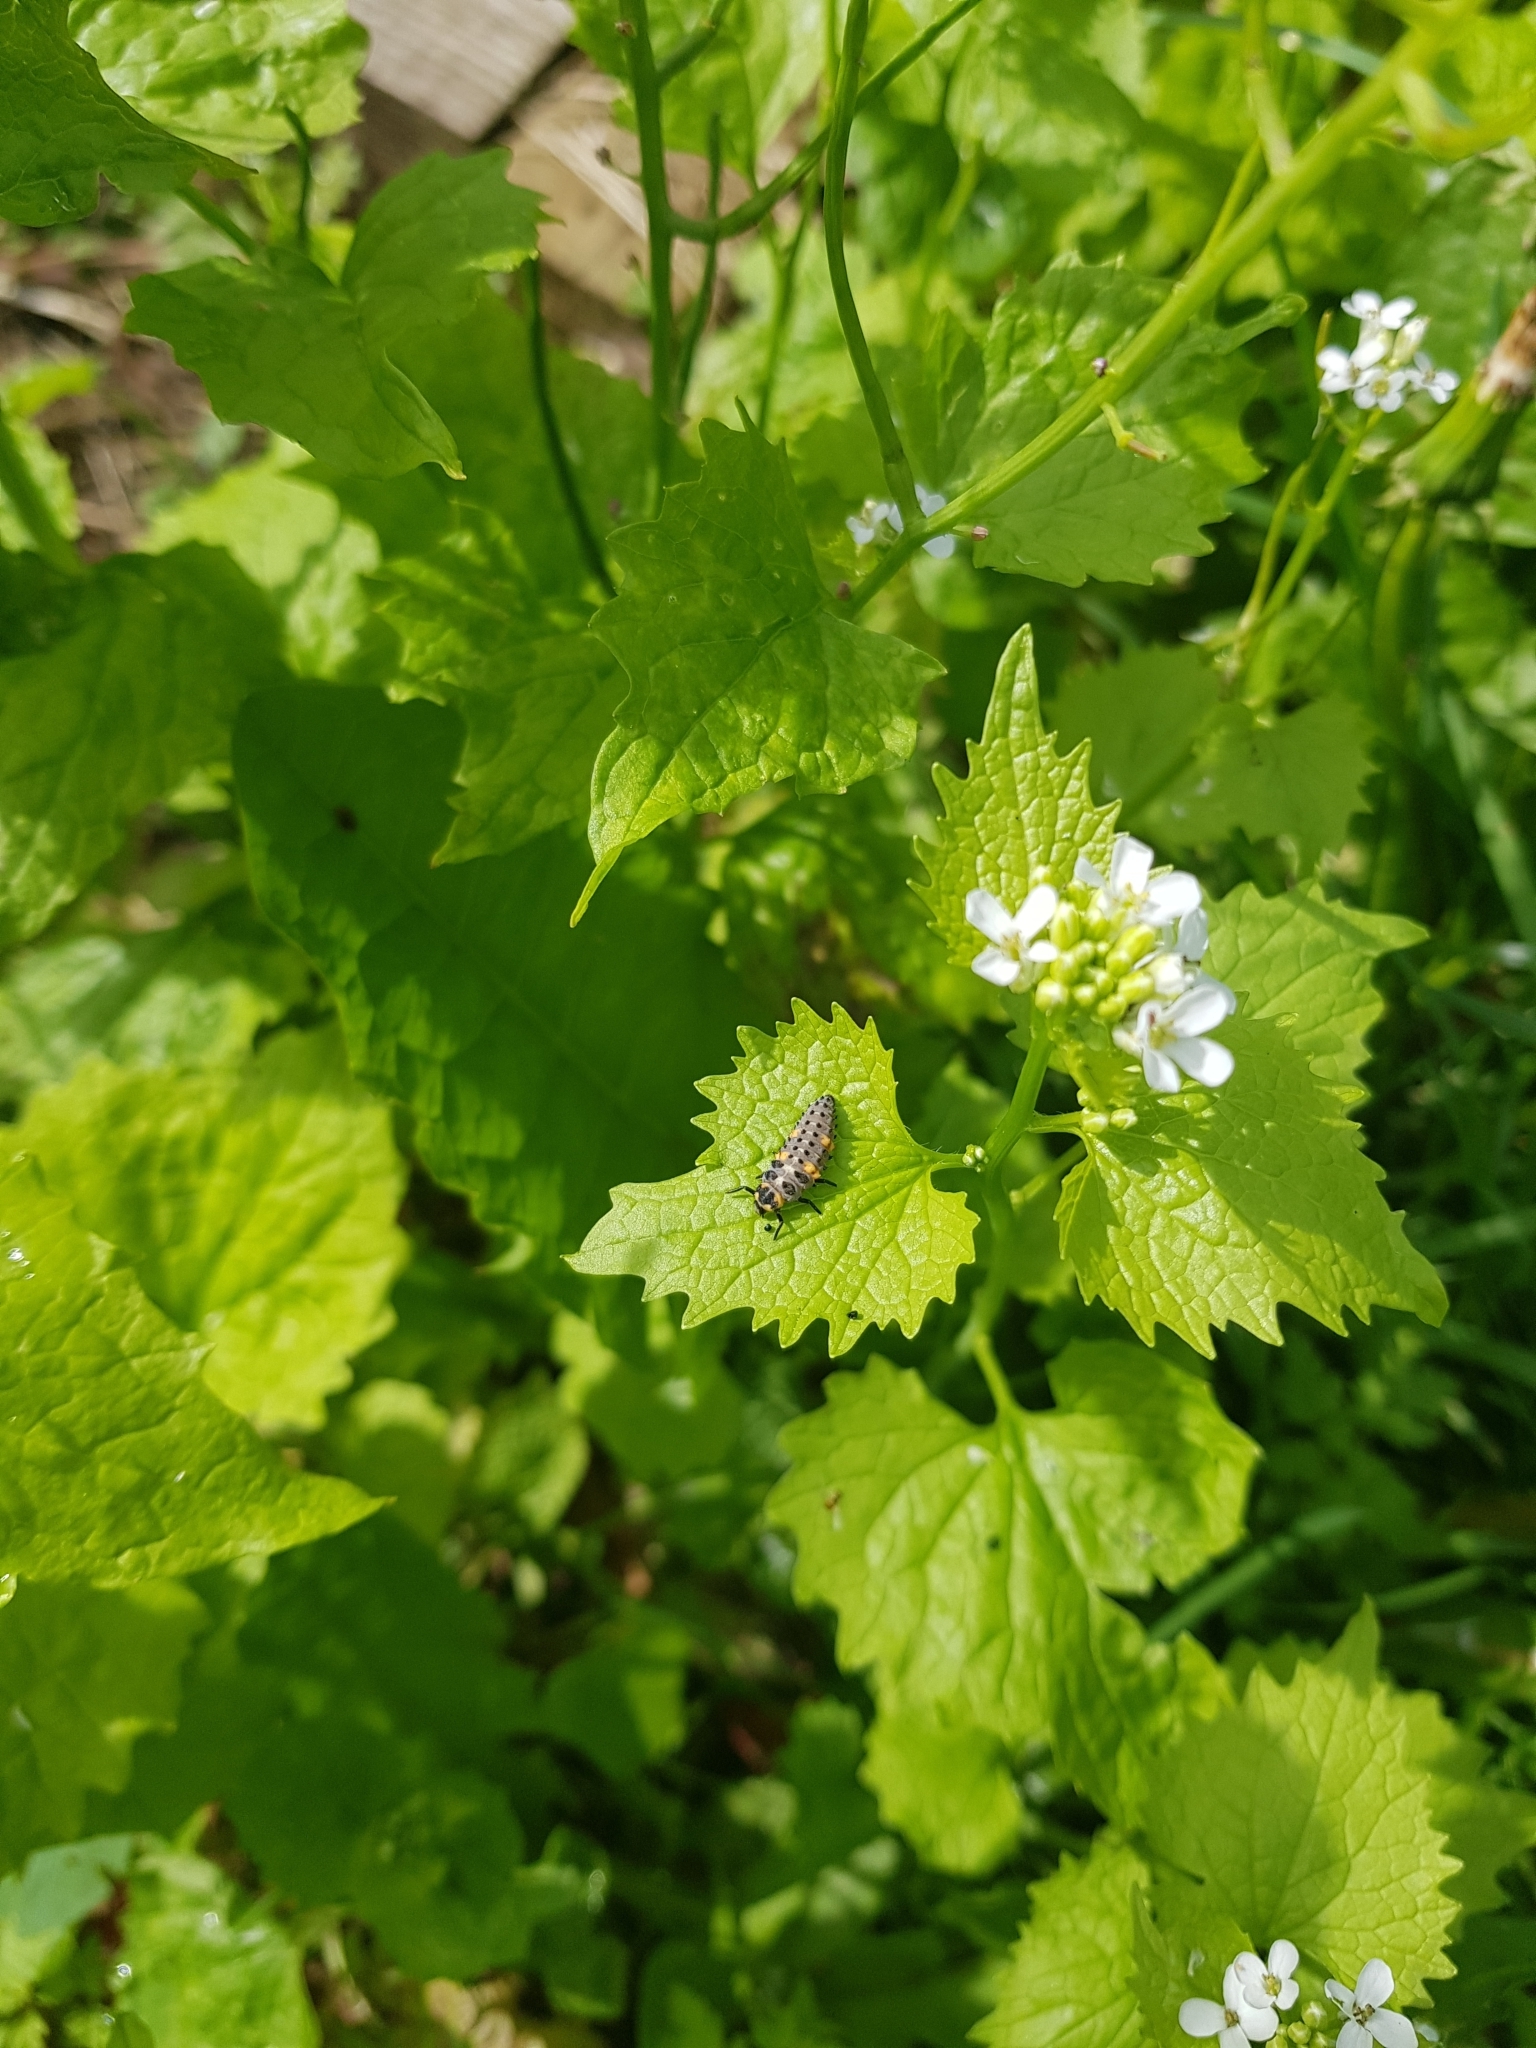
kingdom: Animalia
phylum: Arthropoda
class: Insecta
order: Coleoptera
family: Coccinellidae
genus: Coccinella
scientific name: Coccinella septempunctata
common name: Sevenspotted lady beetle
